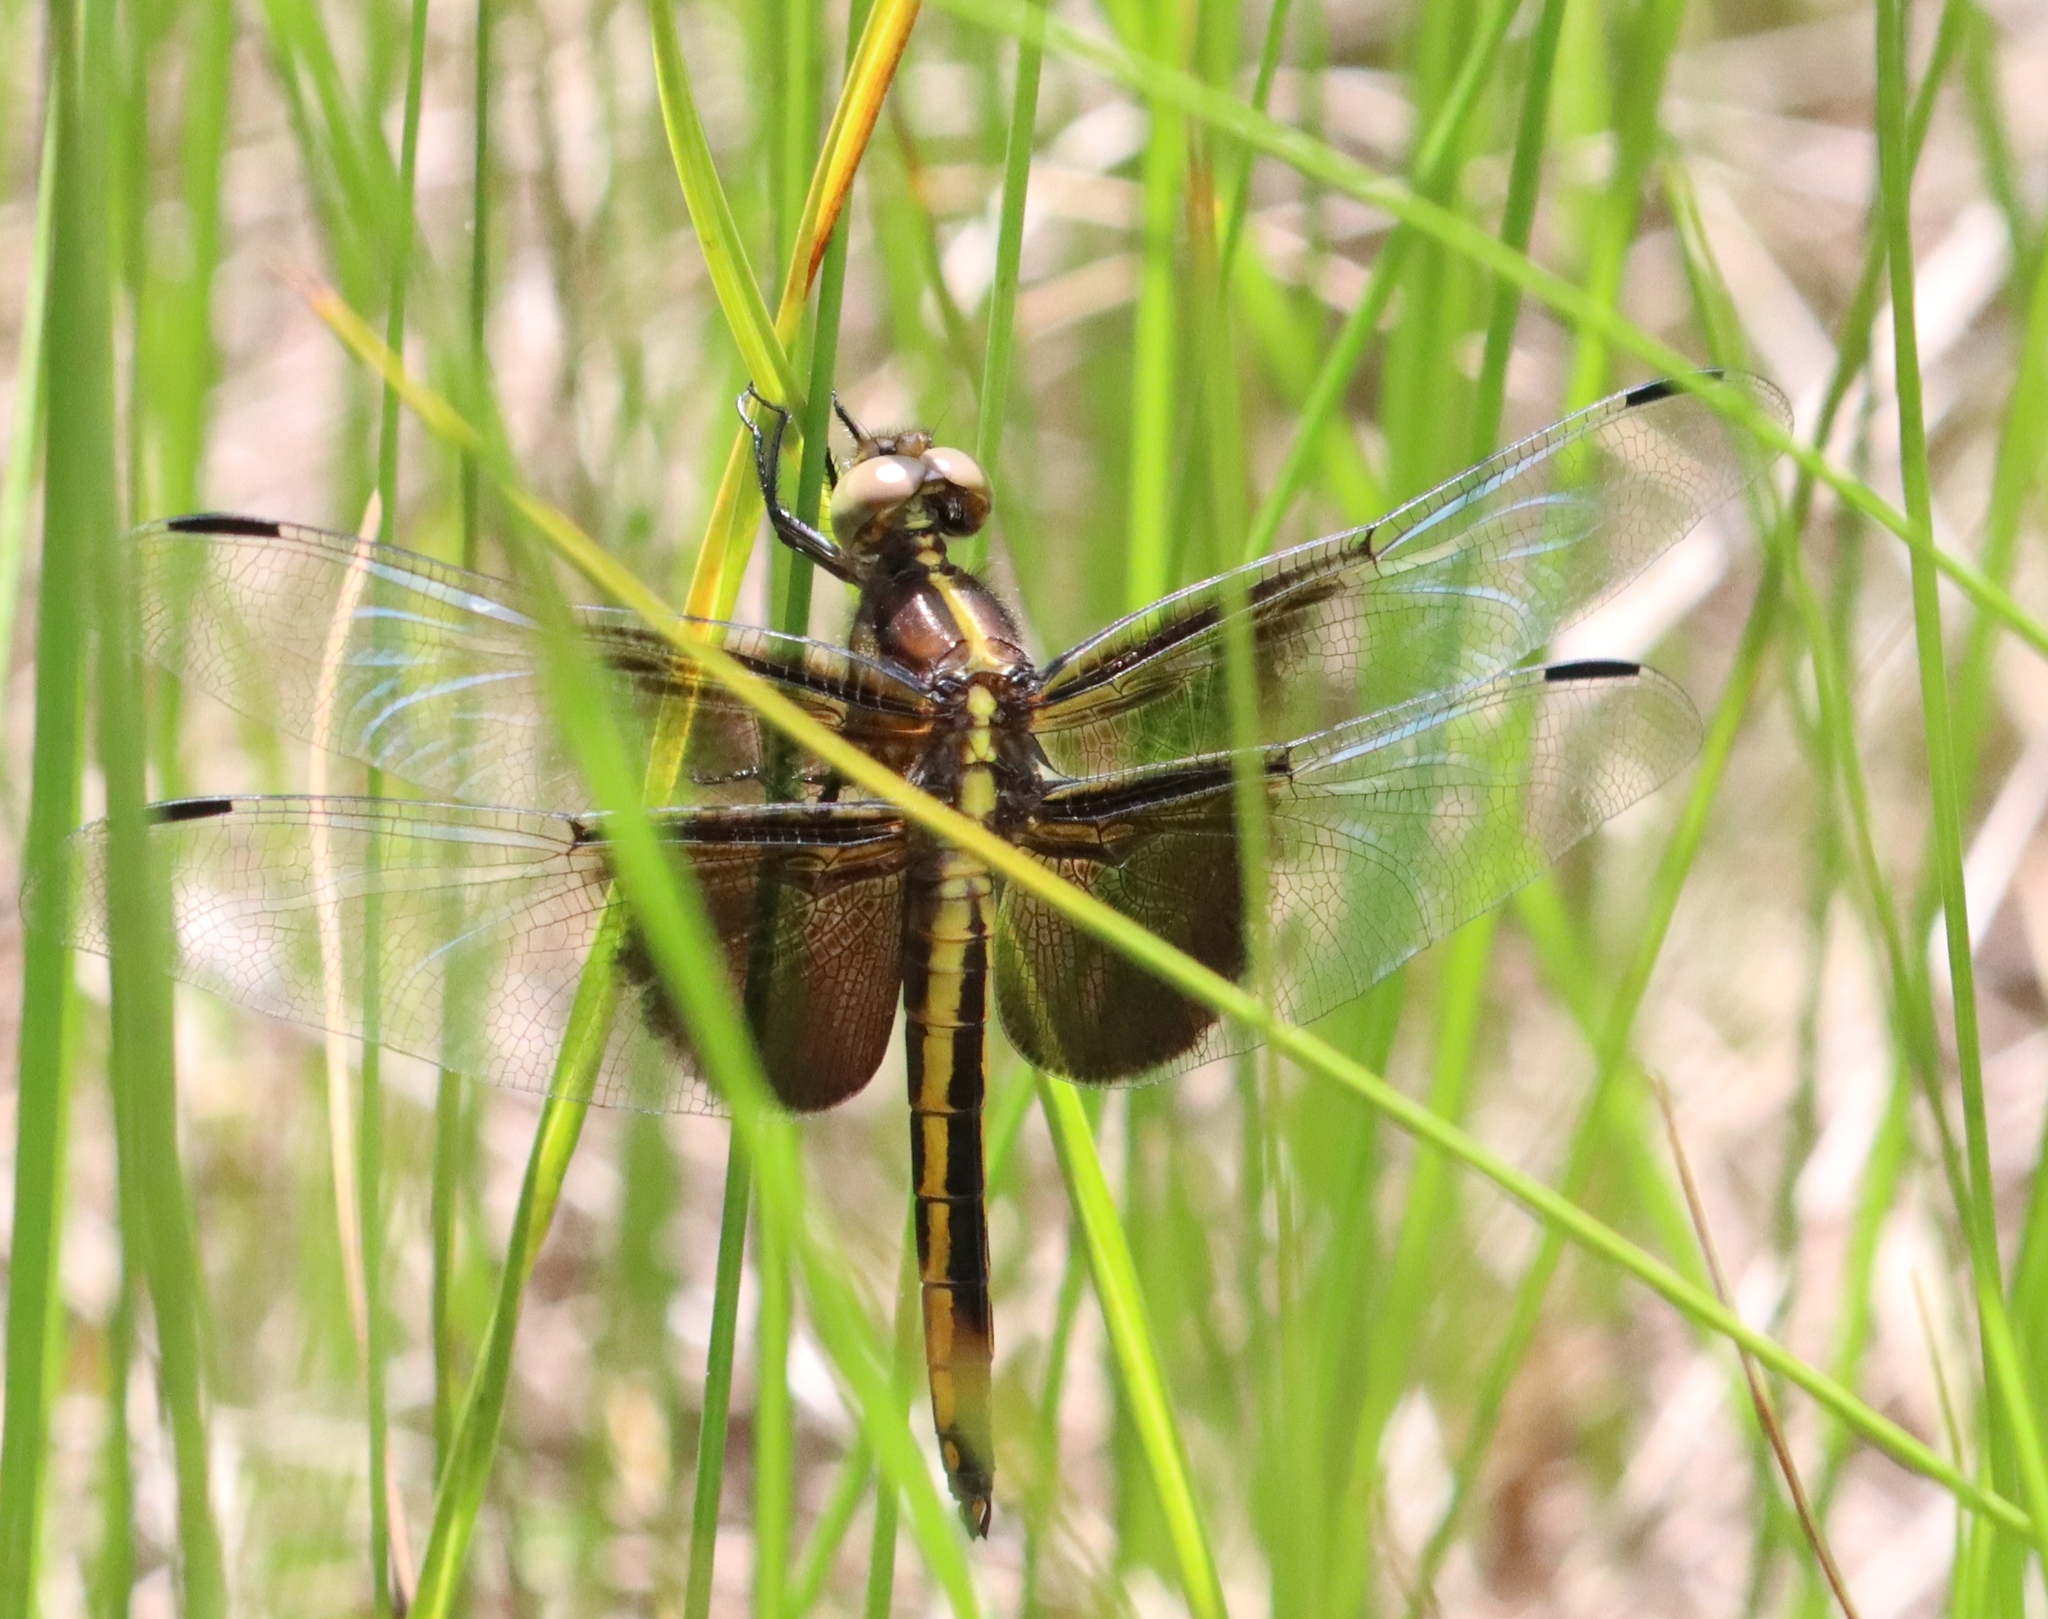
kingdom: Animalia
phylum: Arthropoda
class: Insecta
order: Odonata
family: Libellulidae
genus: Libellula
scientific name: Libellula luctuosa
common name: Widow skimmer
